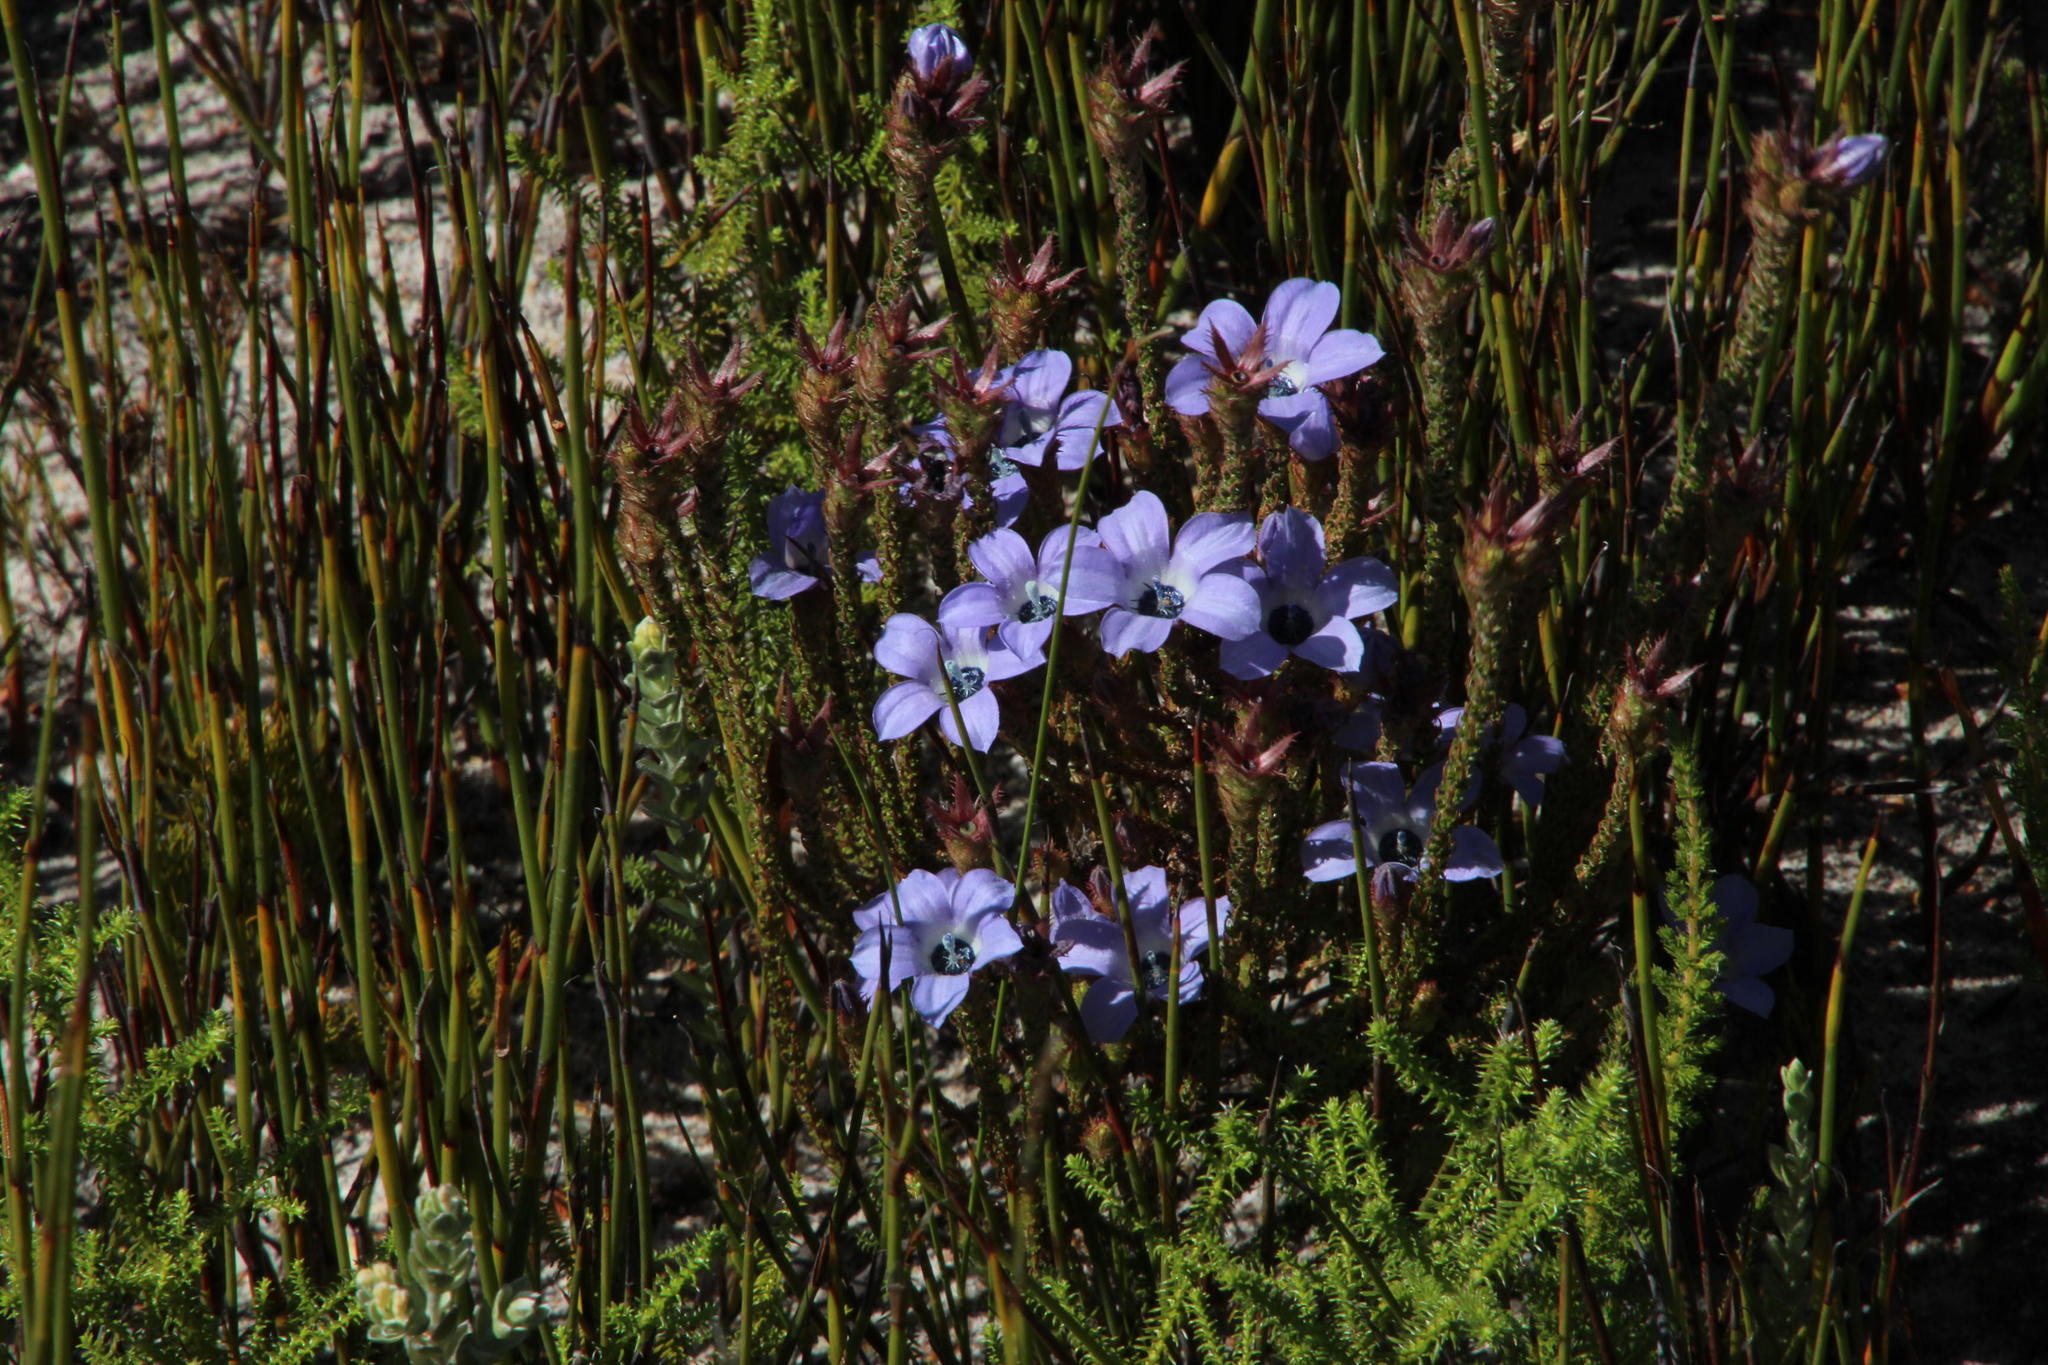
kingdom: Plantae
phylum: Tracheophyta
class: Magnoliopsida
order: Asterales
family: Campanulaceae
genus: Roella
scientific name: Roella triflora
